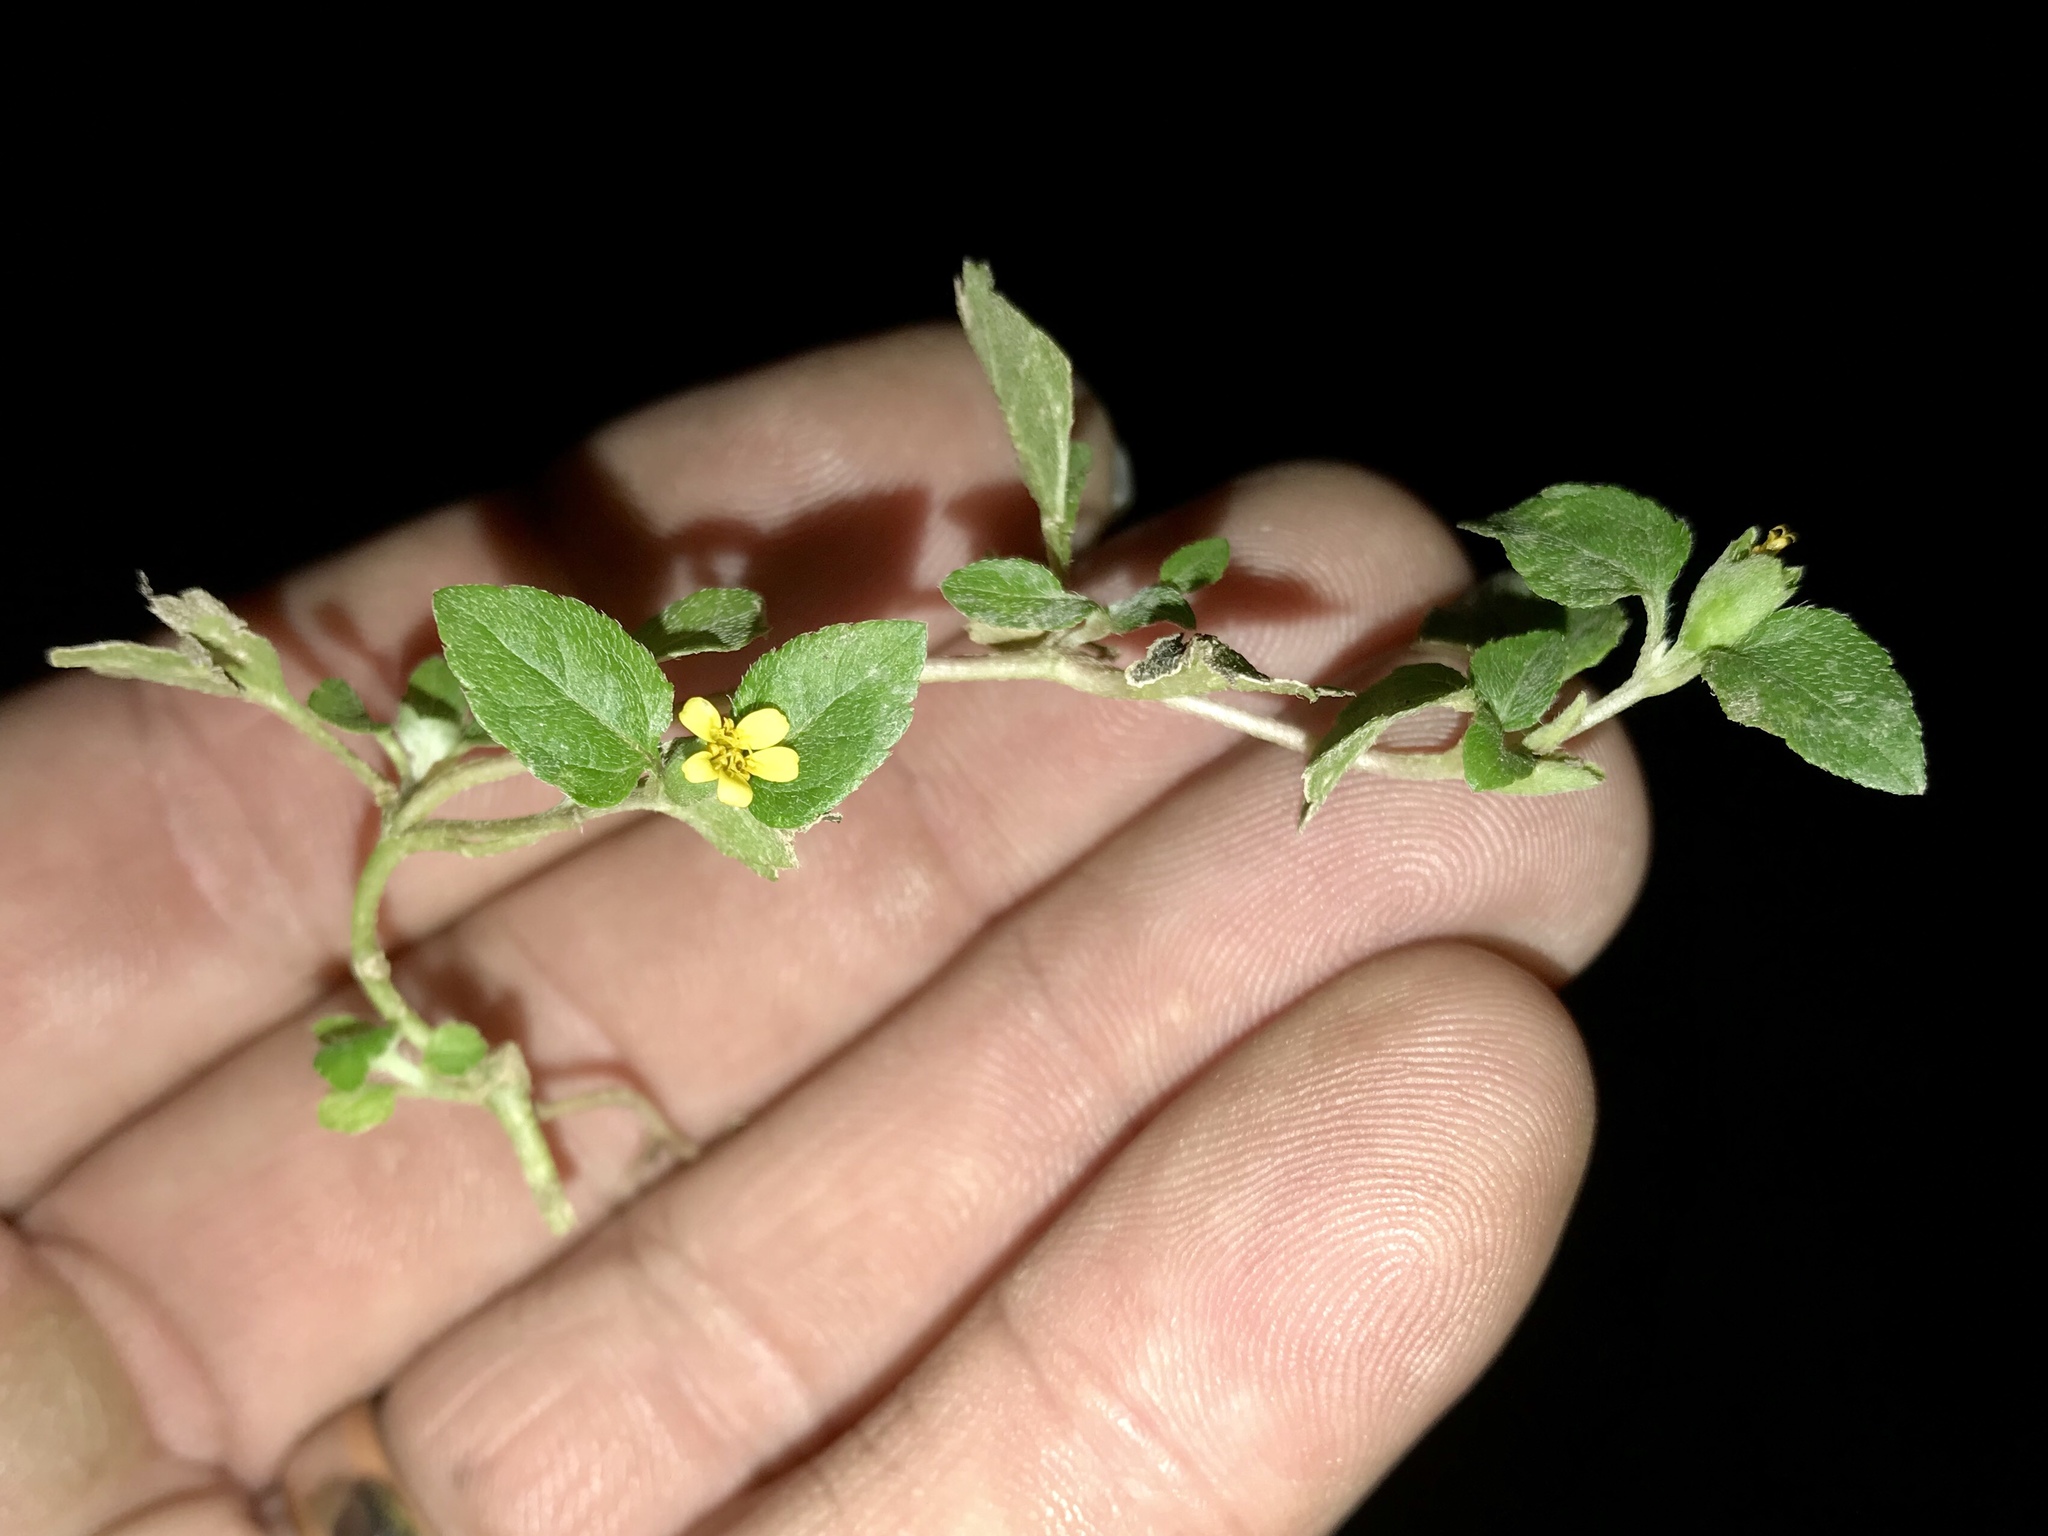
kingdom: Plantae
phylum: Tracheophyta
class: Magnoliopsida
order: Asterales
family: Asteraceae
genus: Calyptocarpus
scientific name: Calyptocarpus vialis
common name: Straggler daisy
